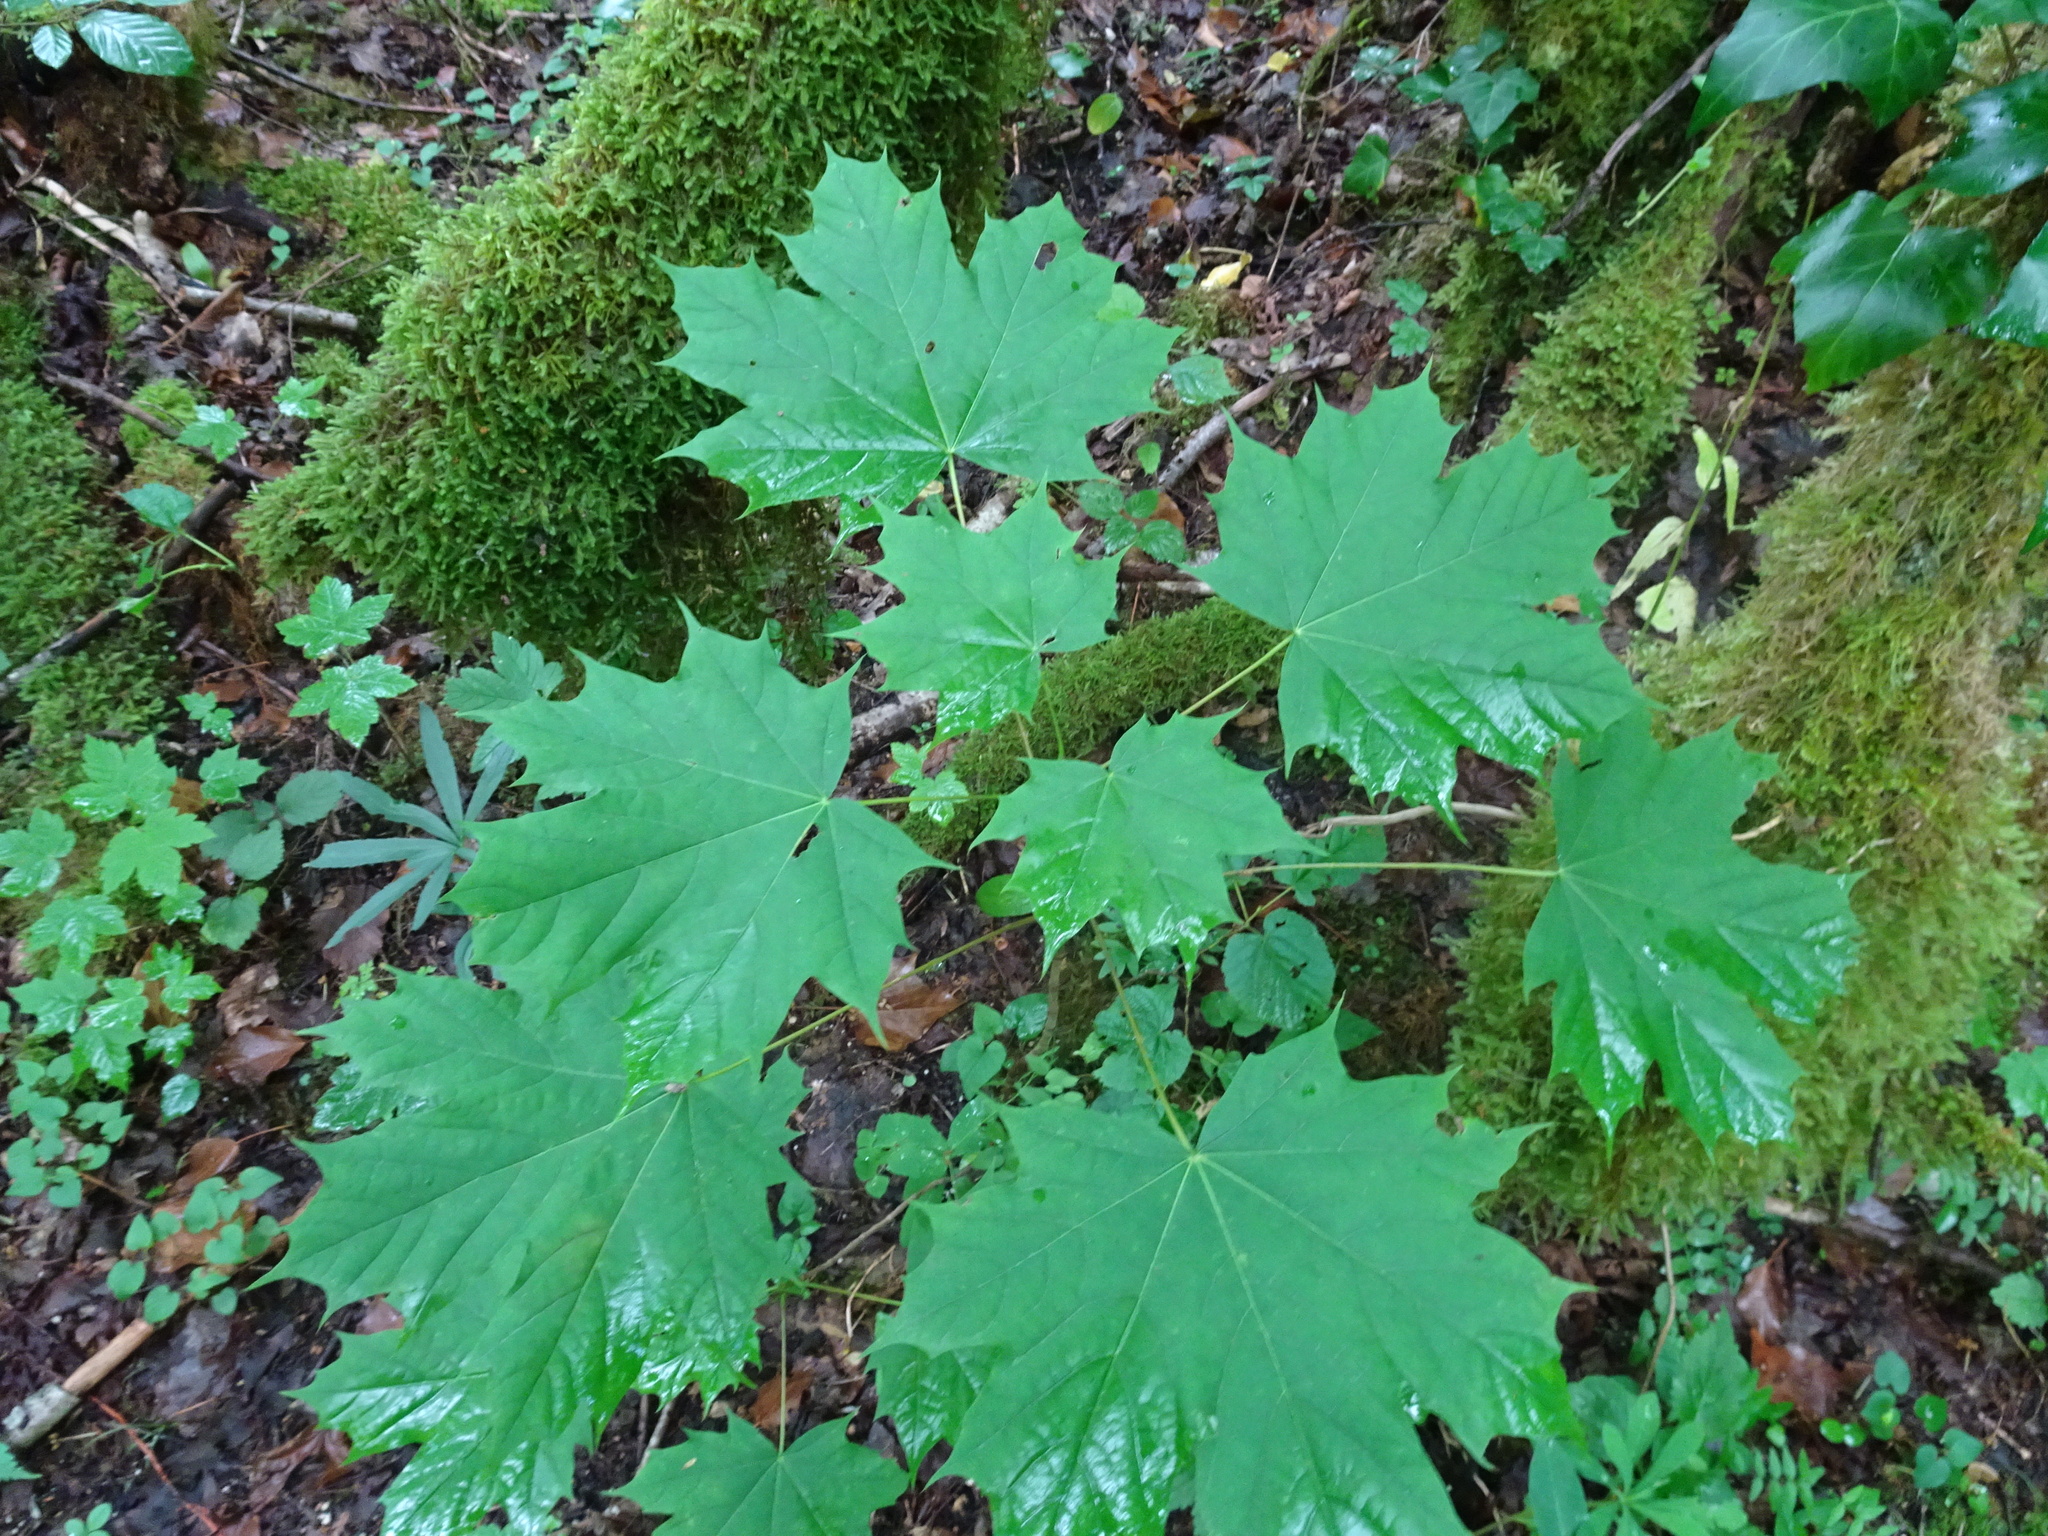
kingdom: Plantae
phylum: Tracheophyta
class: Magnoliopsida
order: Sapindales
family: Sapindaceae
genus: Acer
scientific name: Acer platanoides
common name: Norway maple
